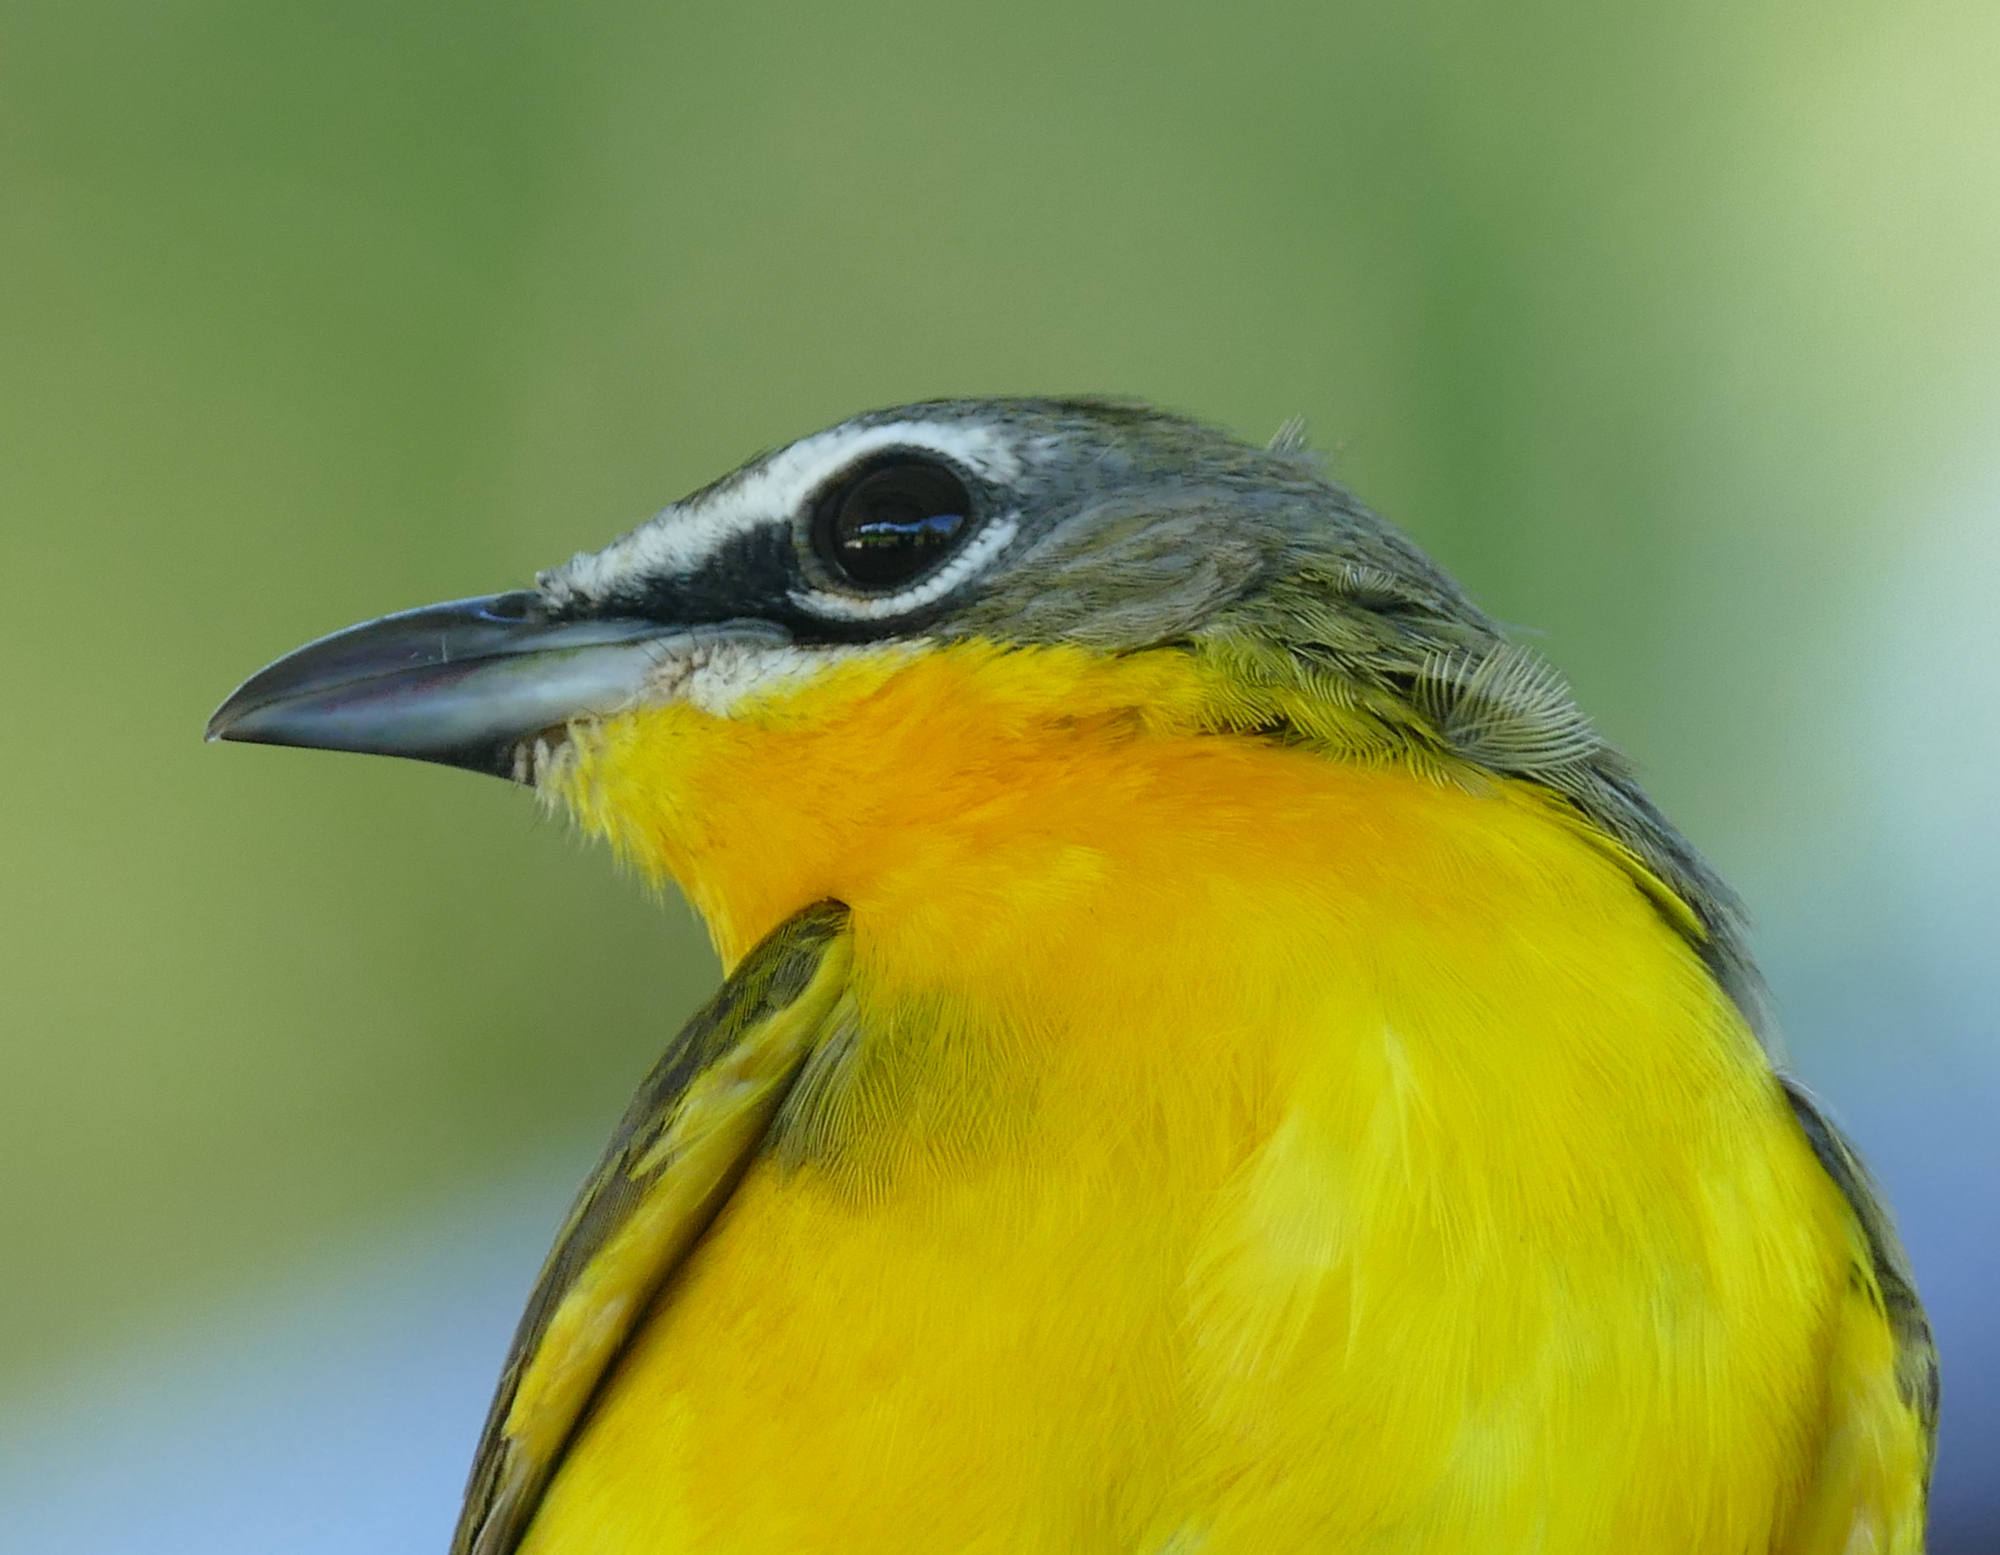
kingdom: Animalia
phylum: Chordata
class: Aves
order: Passeriformes
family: Parulidae
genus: Icteria
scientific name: Icteria virens
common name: Yellow-breasted chat
